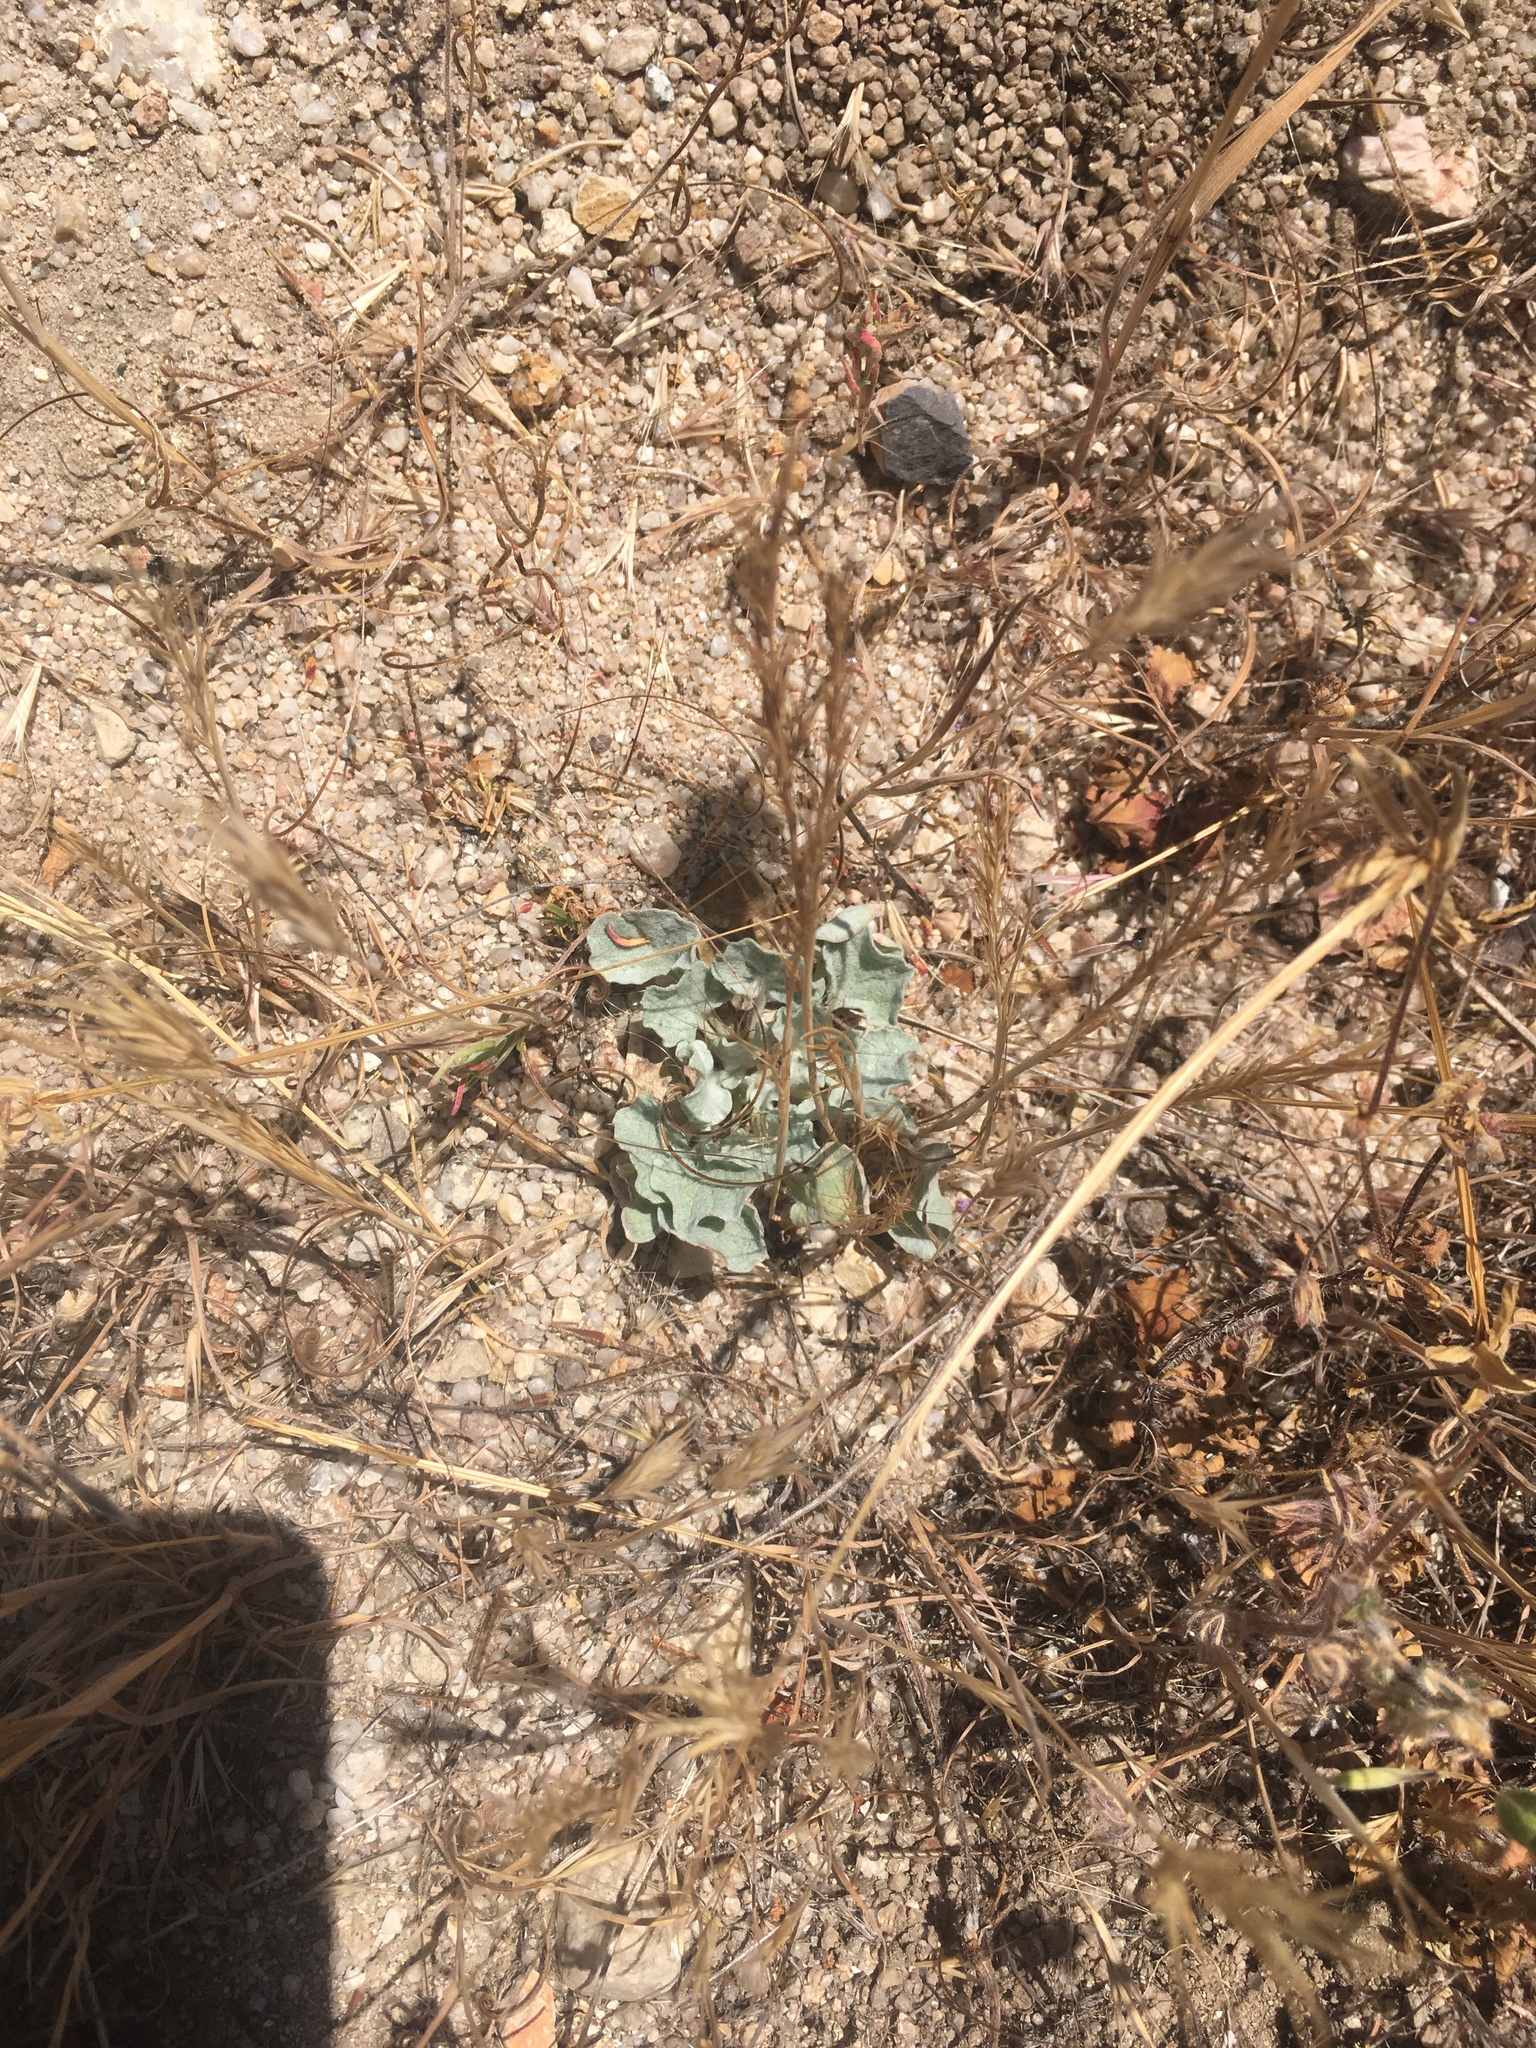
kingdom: Plantae
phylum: Tracheophyta
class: Magnoliopsida
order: Caryophyllales
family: Polygonaceae
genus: Eriogonum
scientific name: Eriogonum elegans
